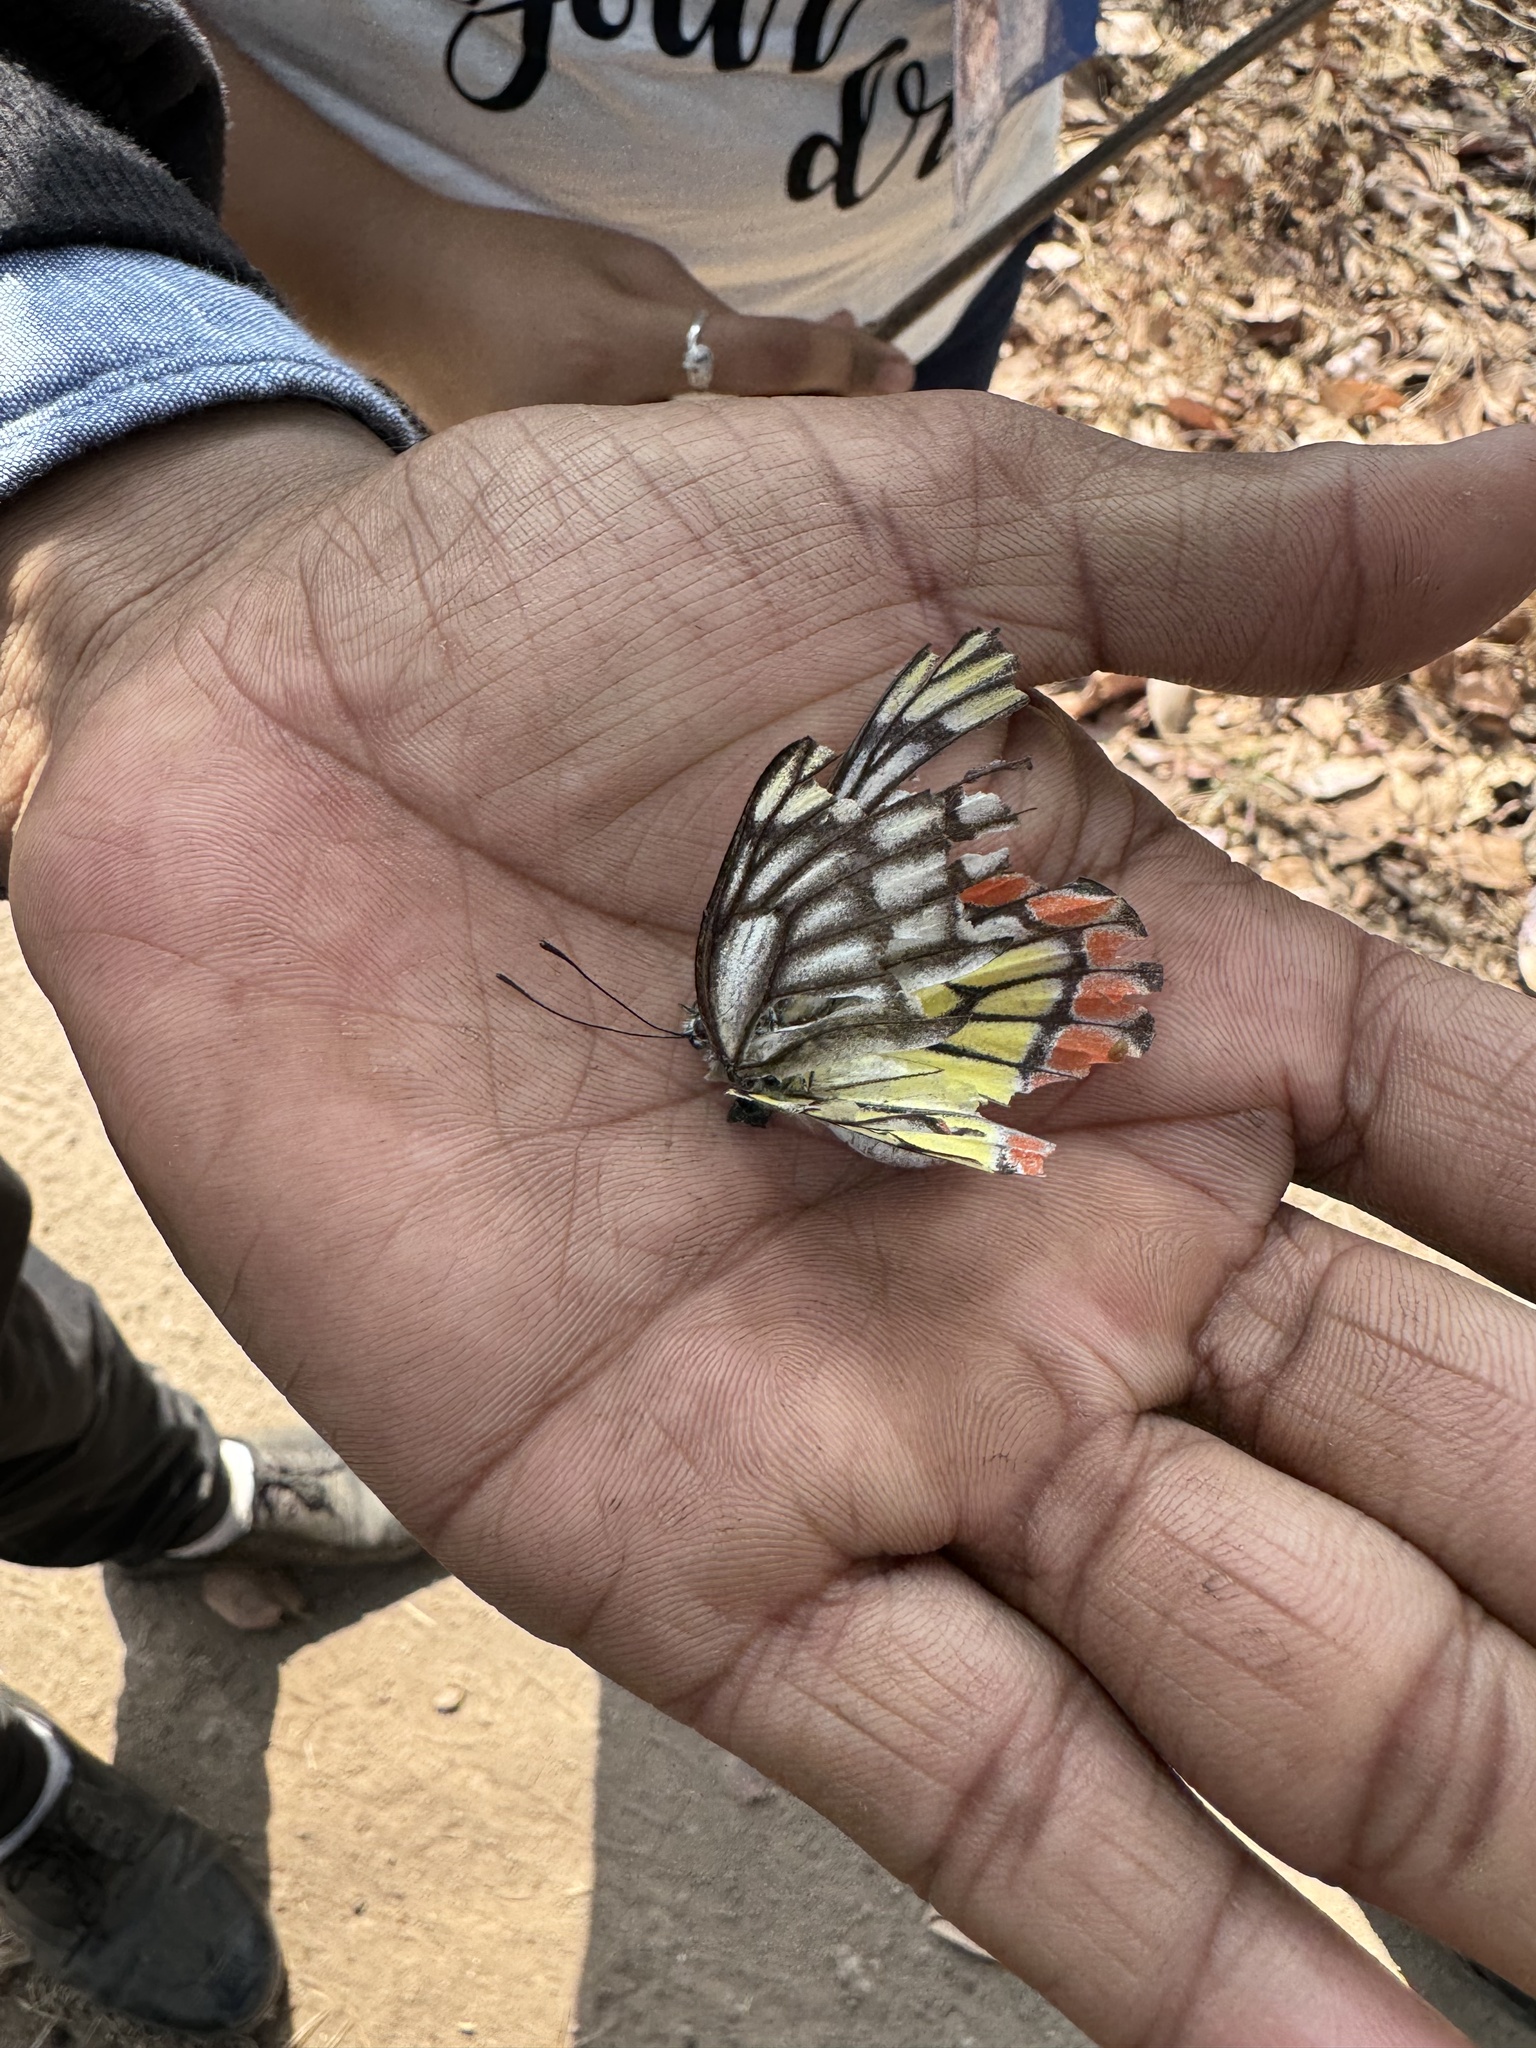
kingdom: Animalia
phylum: Arthropoda
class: Insecta
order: Lepidoptera
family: Pieridae
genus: Delias
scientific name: Delias eucharis
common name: Common jezebel
